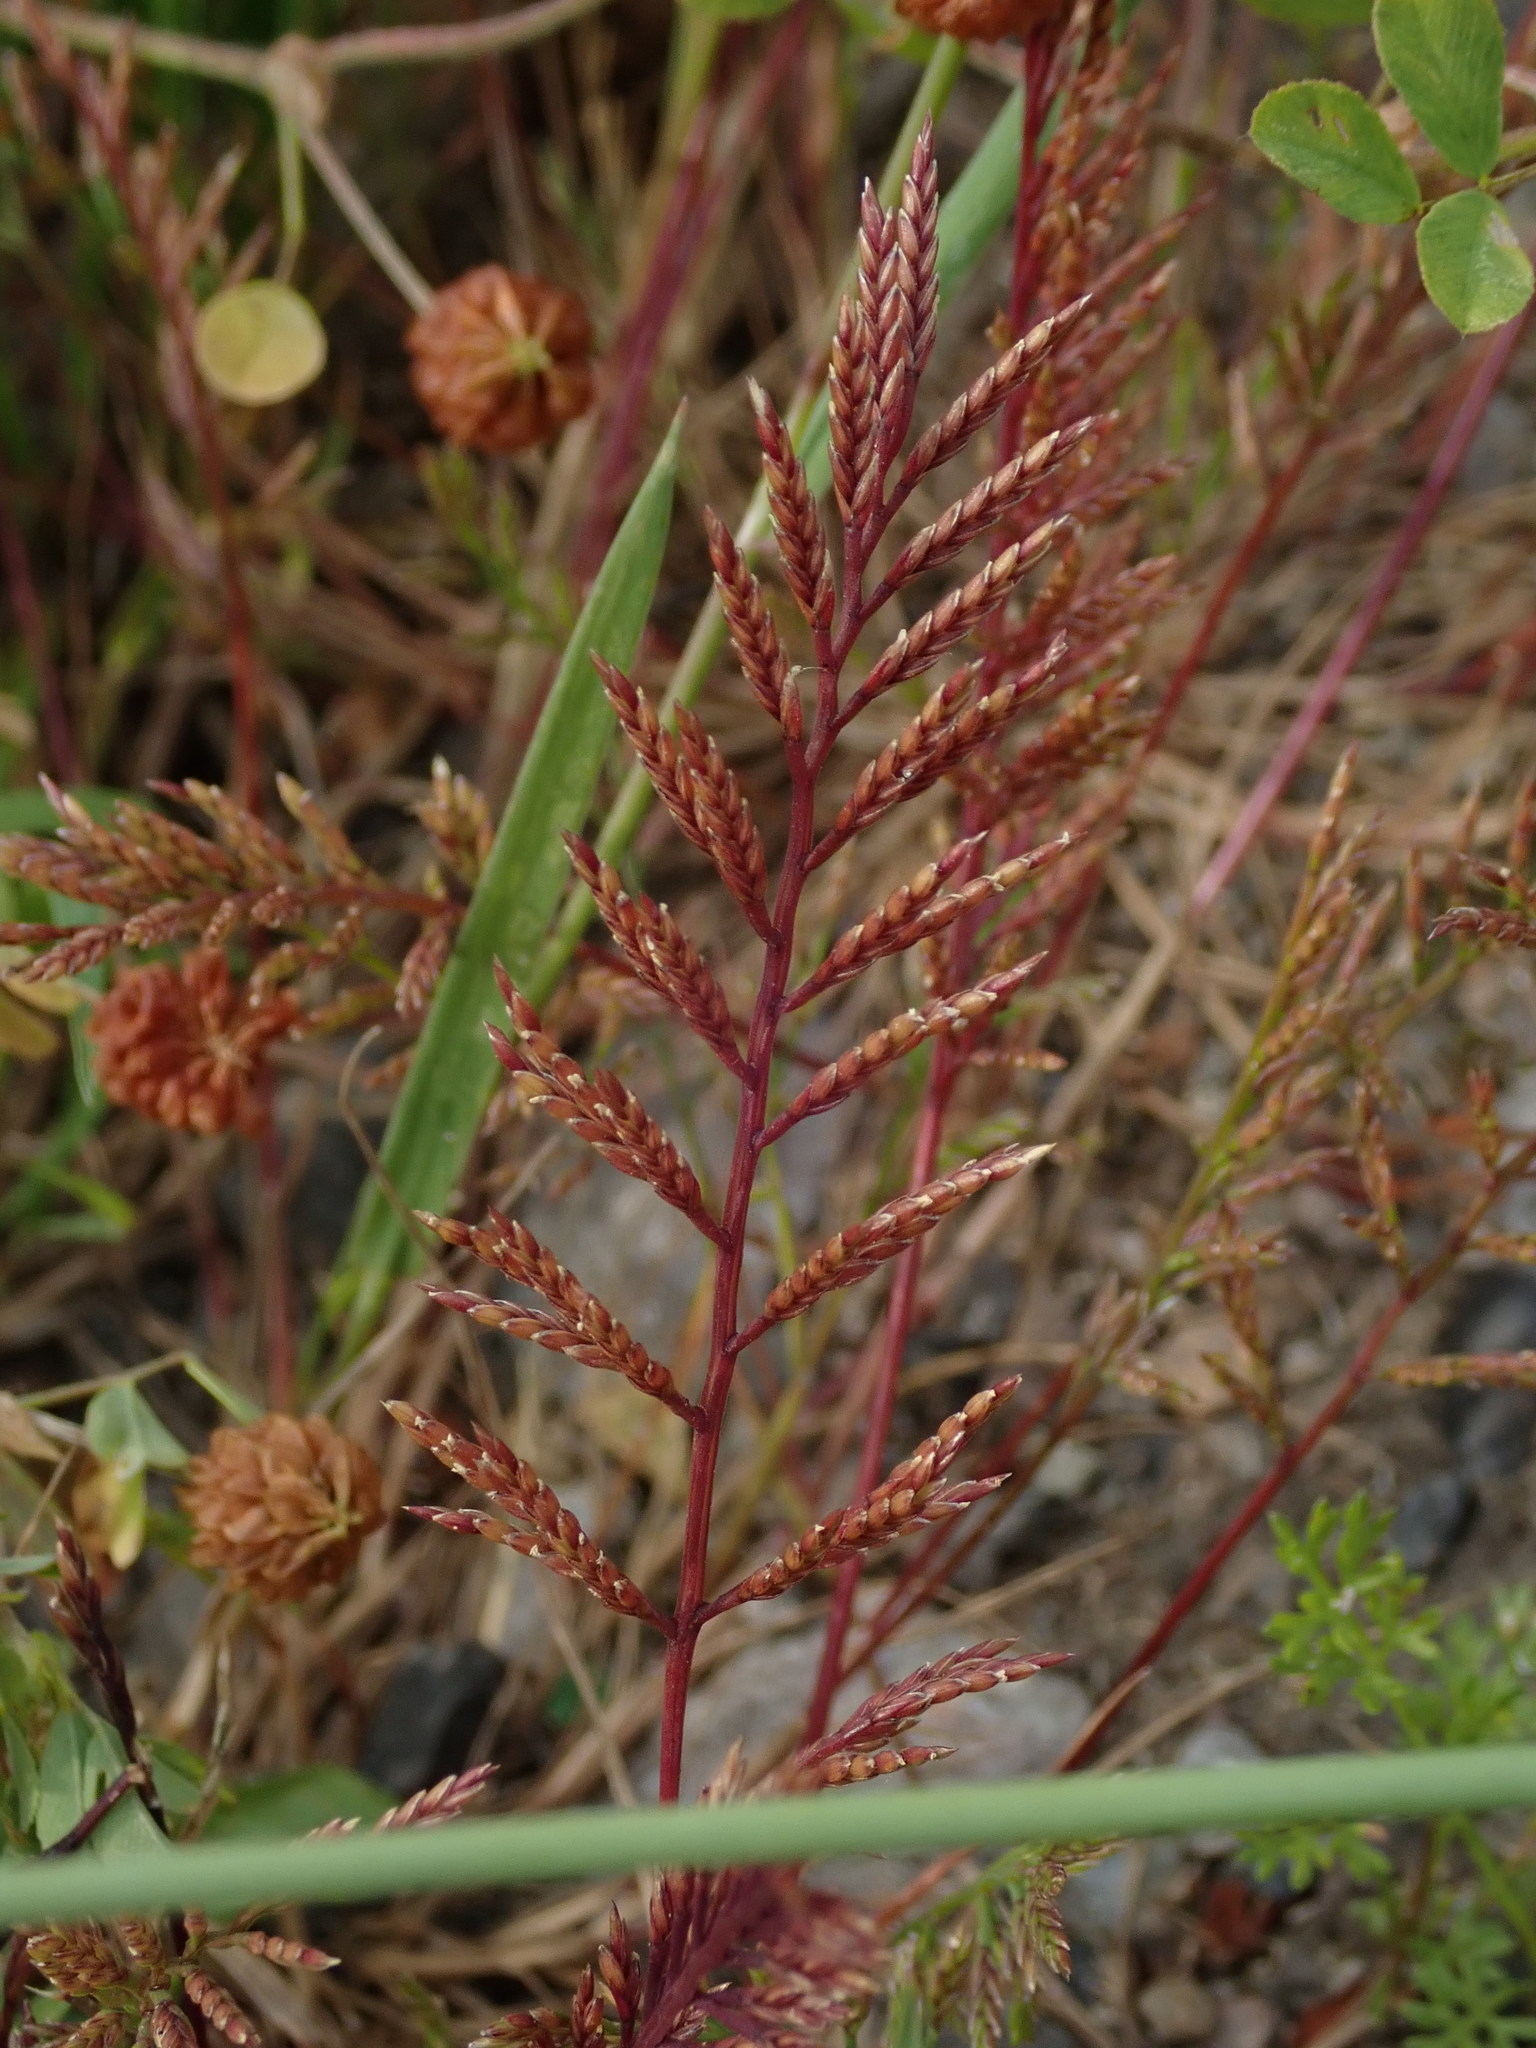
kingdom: Plantae
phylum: Tracheophyta
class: Liliopsida
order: Poales
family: Poaceae
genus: Catapodium
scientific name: Catapodium rigidum
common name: Fern-grass
